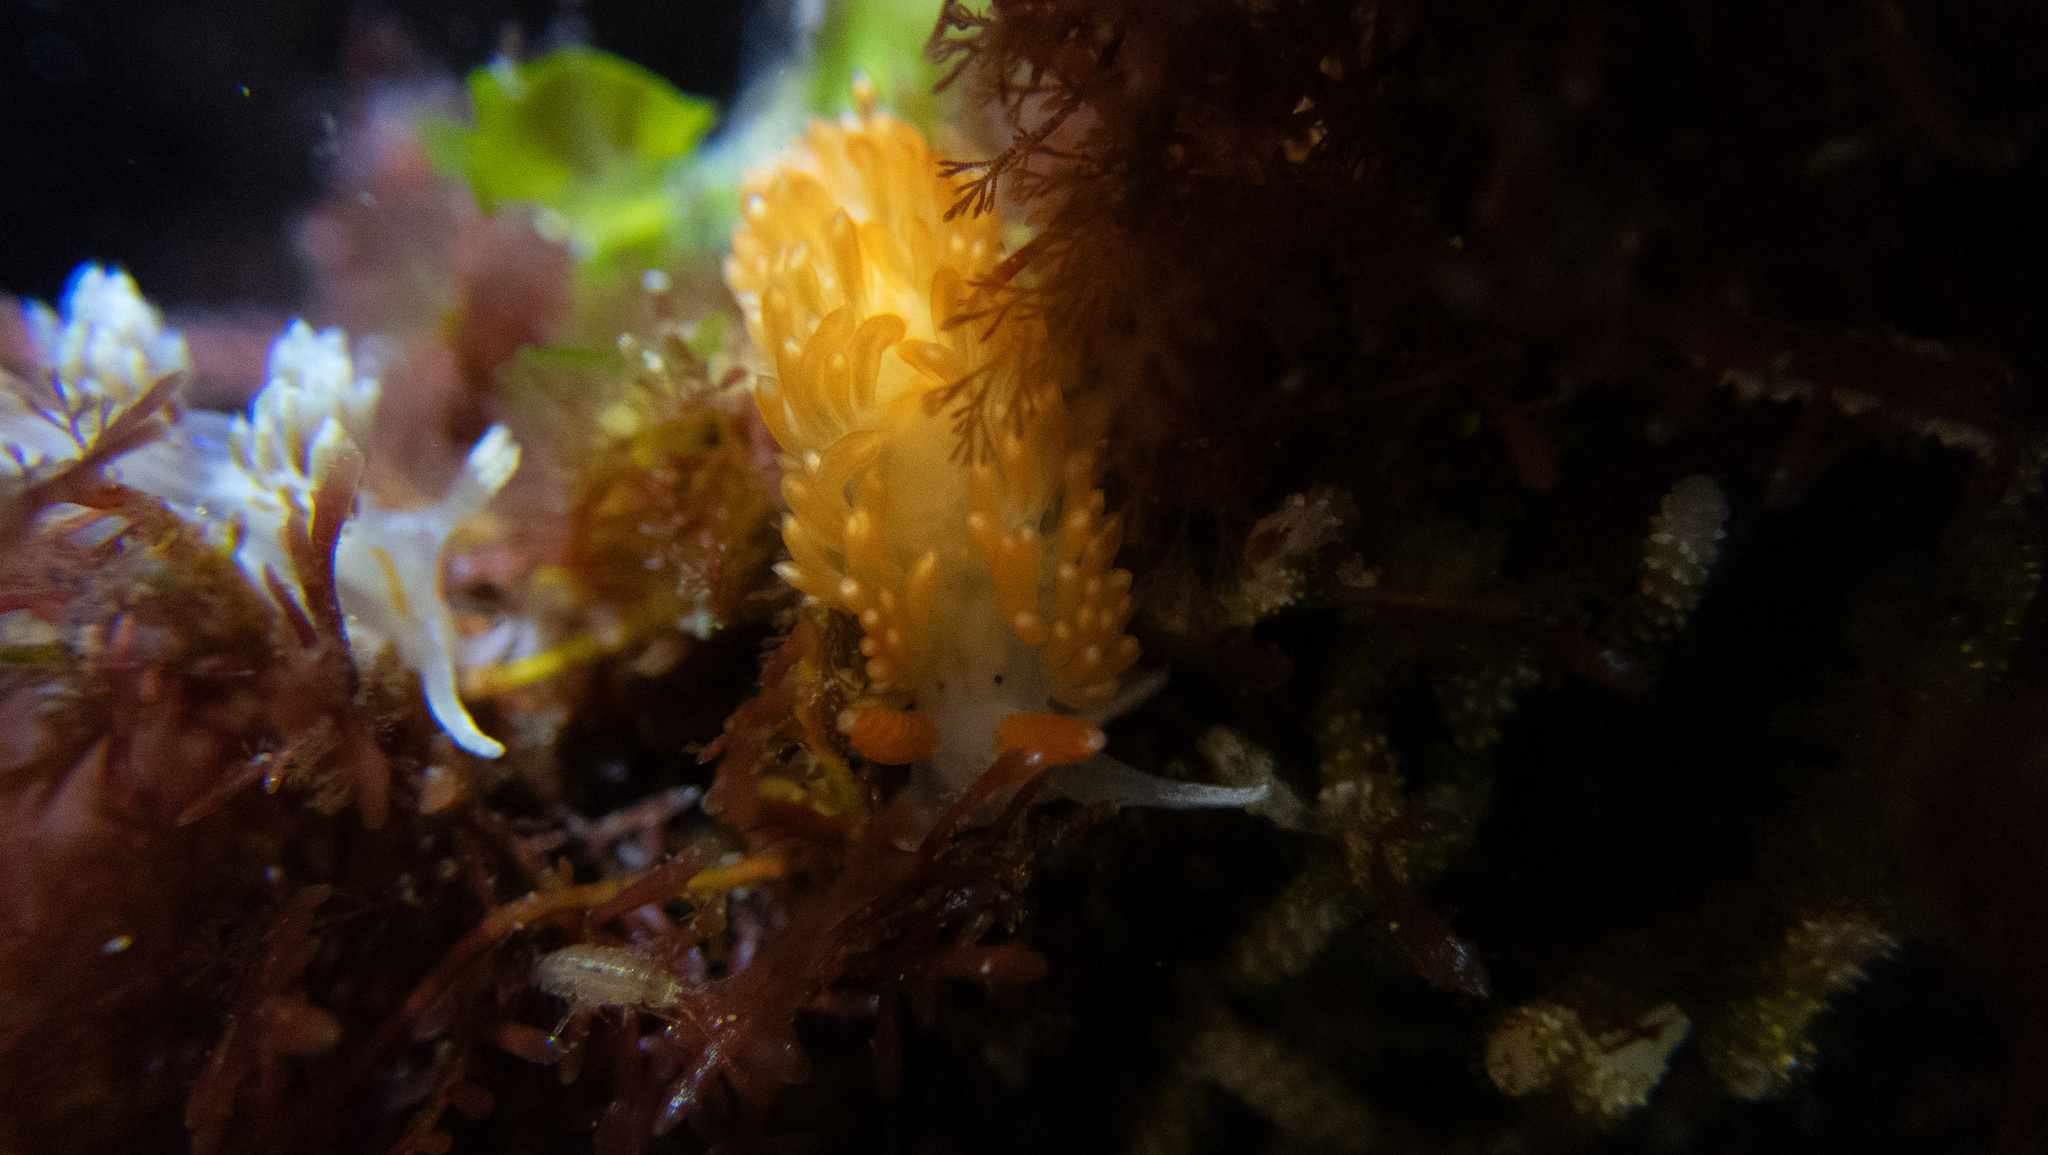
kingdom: Animalia
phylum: Mollusca
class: Gastropoda
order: Nudibranchia
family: Aeolidiidae
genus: Anteaeolidiella
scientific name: Anteaeolidiella oliviae
